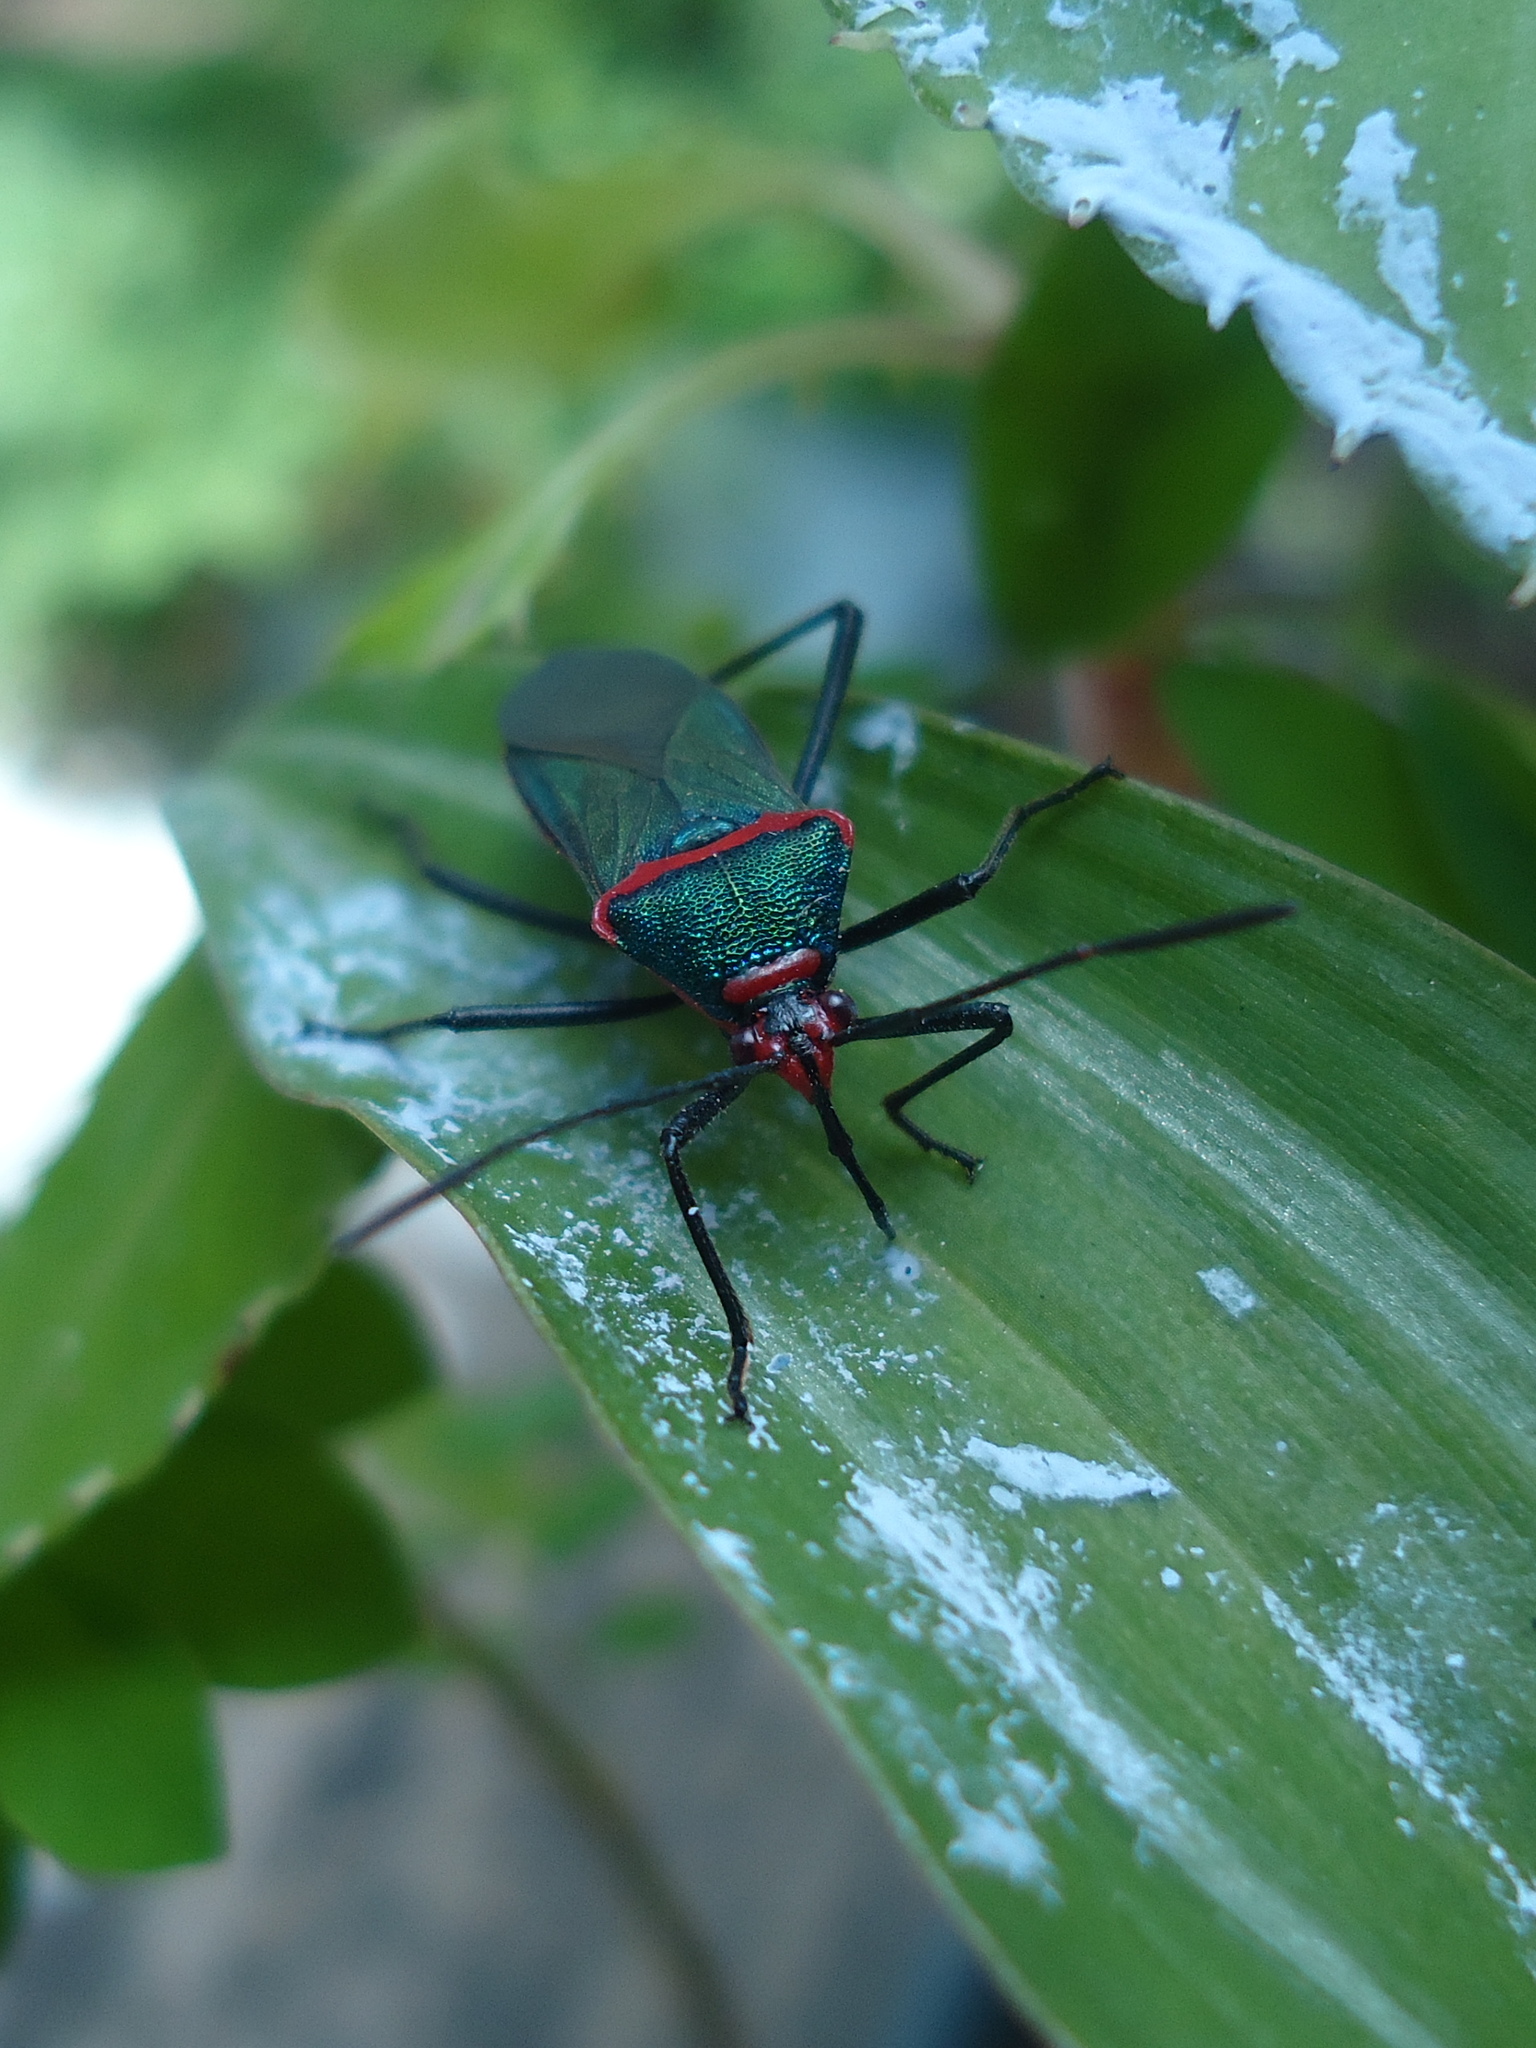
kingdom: Animalia
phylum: Arthropoda
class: Insecta
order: Hemiptera
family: Coreidae
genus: Sphictyrtus
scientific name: Sphictyrtus chrysis
